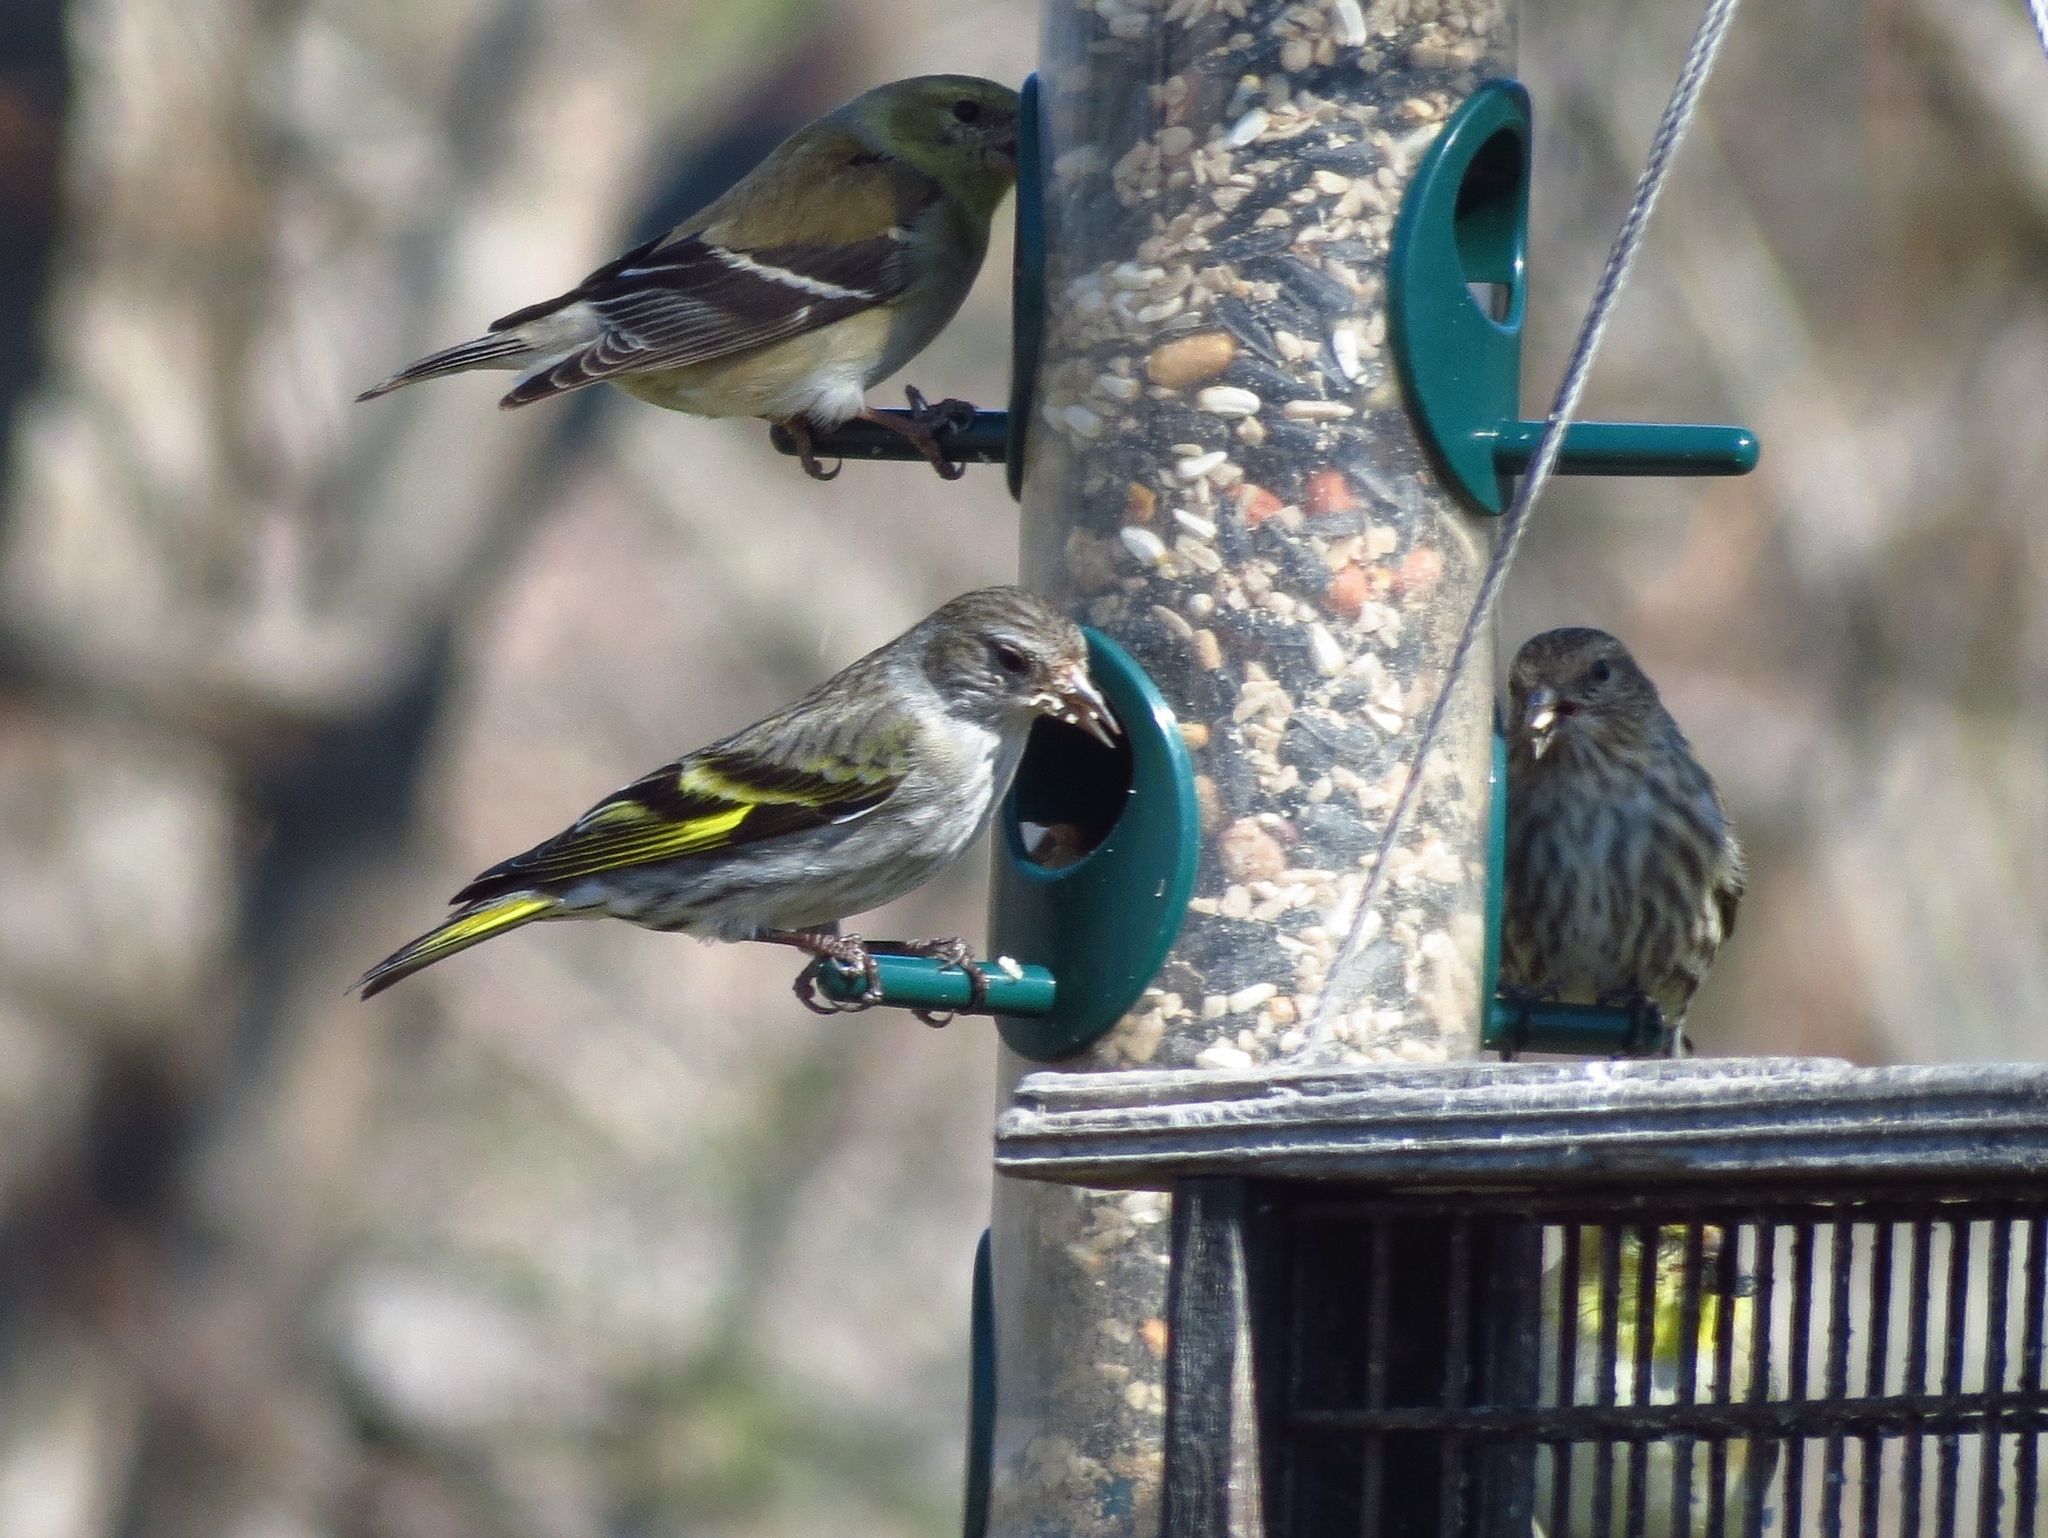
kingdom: Animalia
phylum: Chordata
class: Aves
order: Passeriformes
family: Fringillidae
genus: Spinus
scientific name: Spinus pinus
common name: Pine siskin
